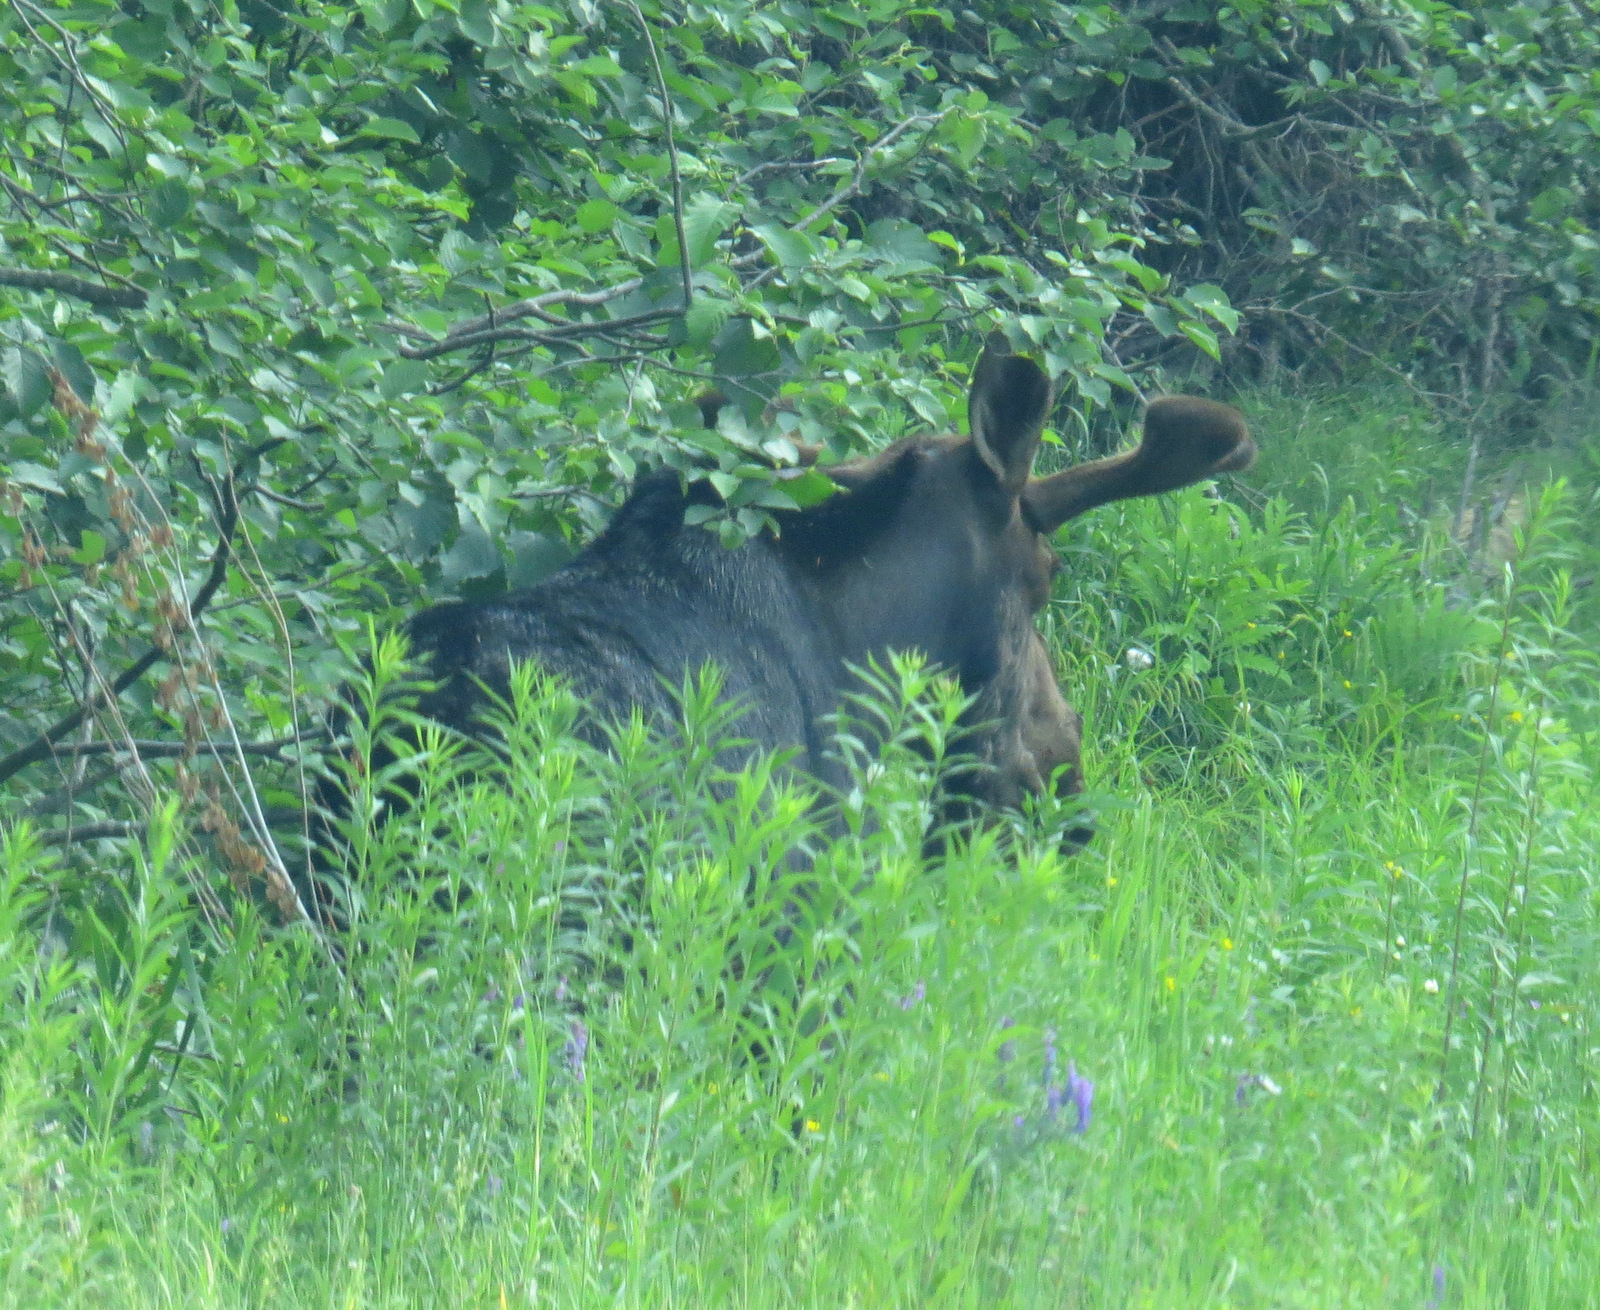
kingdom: Animalia
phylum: Chordata
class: Mammalia
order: Artiodactyla
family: Cervidae
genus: Alces
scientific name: Alces alces
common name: Moose
